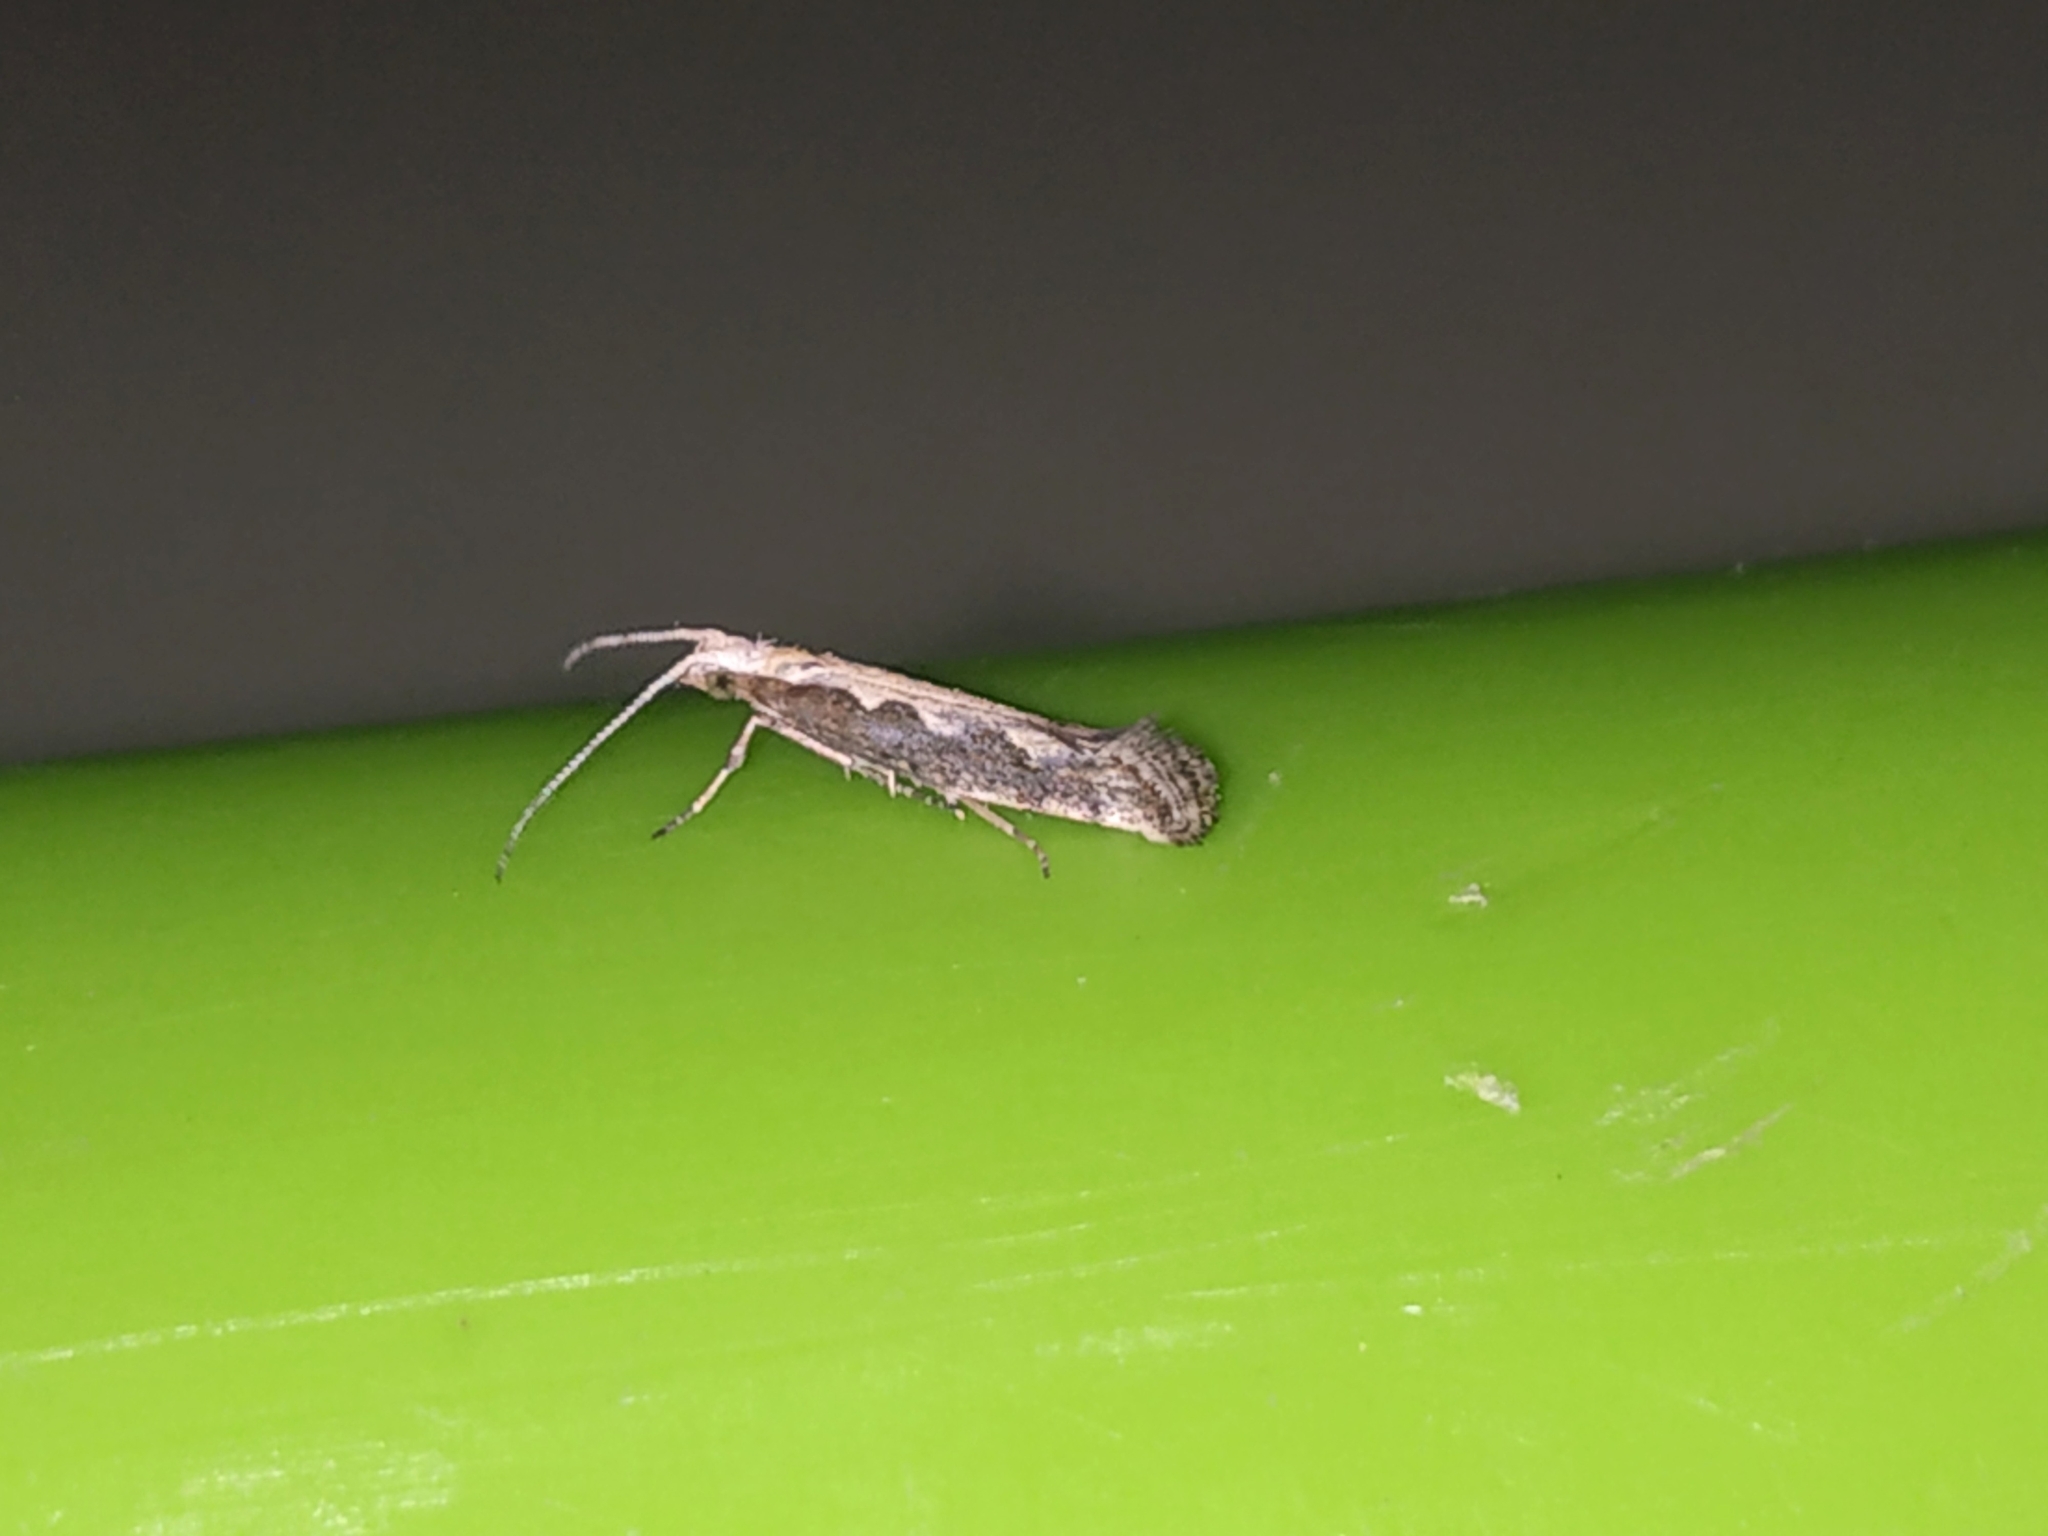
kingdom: Animalia
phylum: Arthropoda
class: Insecta
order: Lepidoptera
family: Plutellidae
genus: Plutella
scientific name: Plutella xylostella
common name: Diamond-back moth
